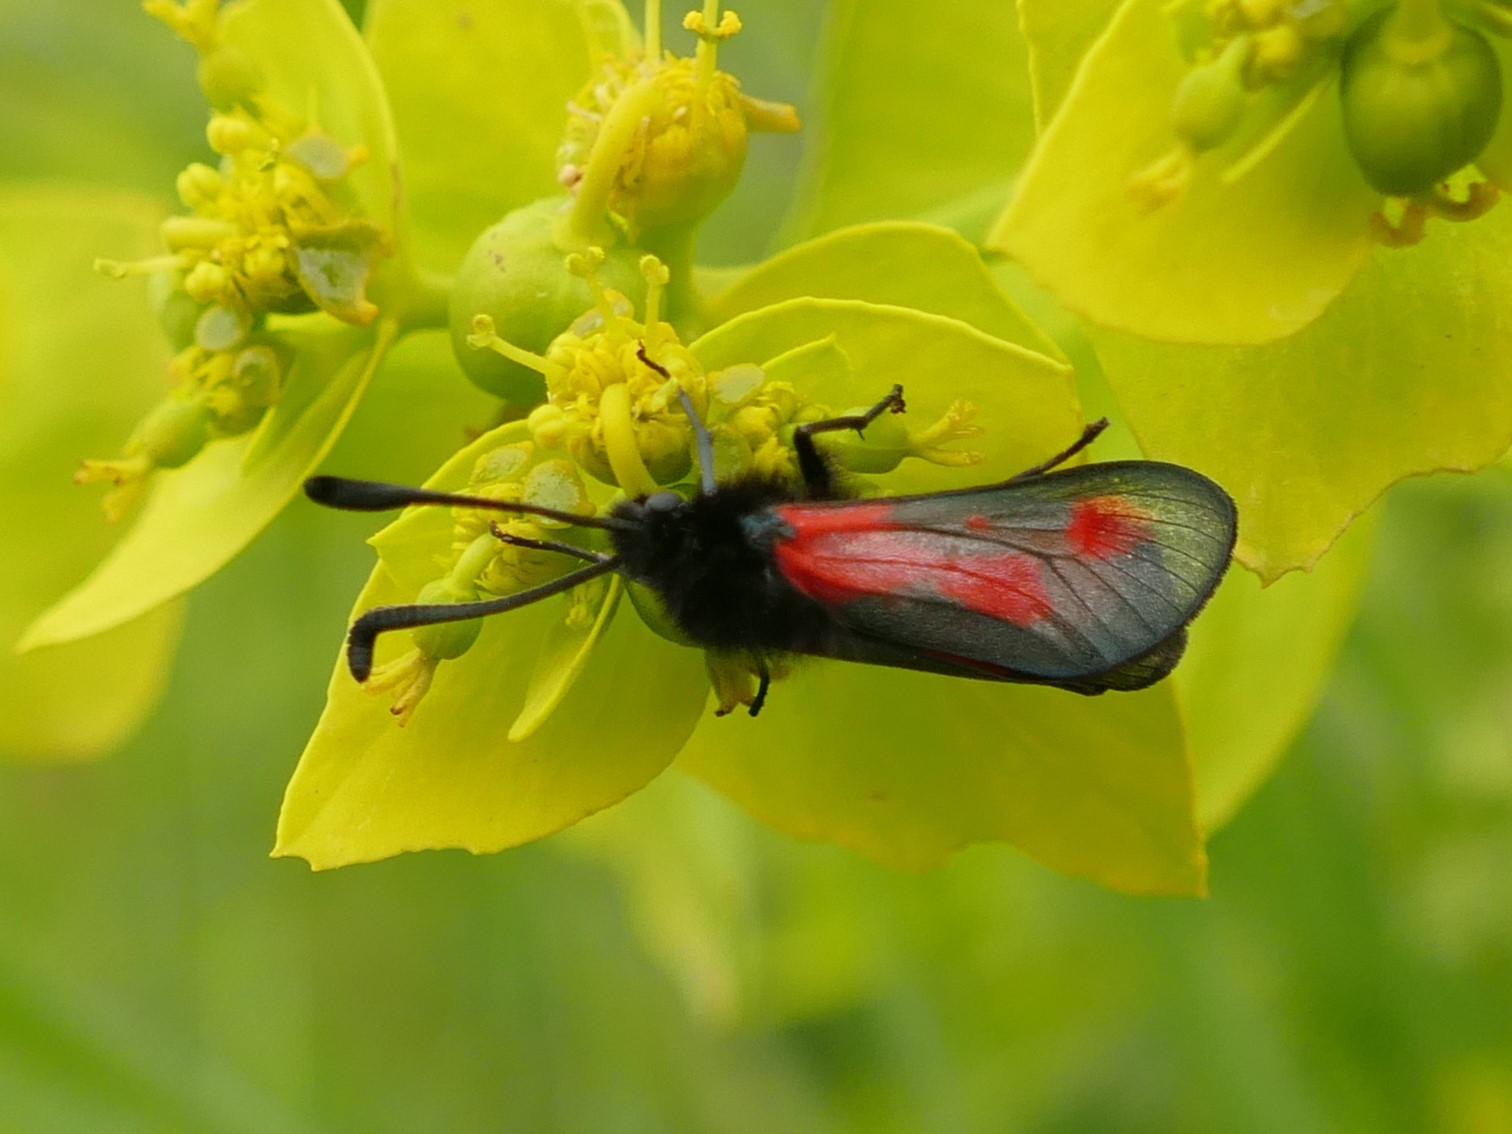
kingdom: Animalia
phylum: Arthropoda
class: Insecta
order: Lepidoptera
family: Zygaenidae
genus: Zygaena
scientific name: Zygaena sarpedon
